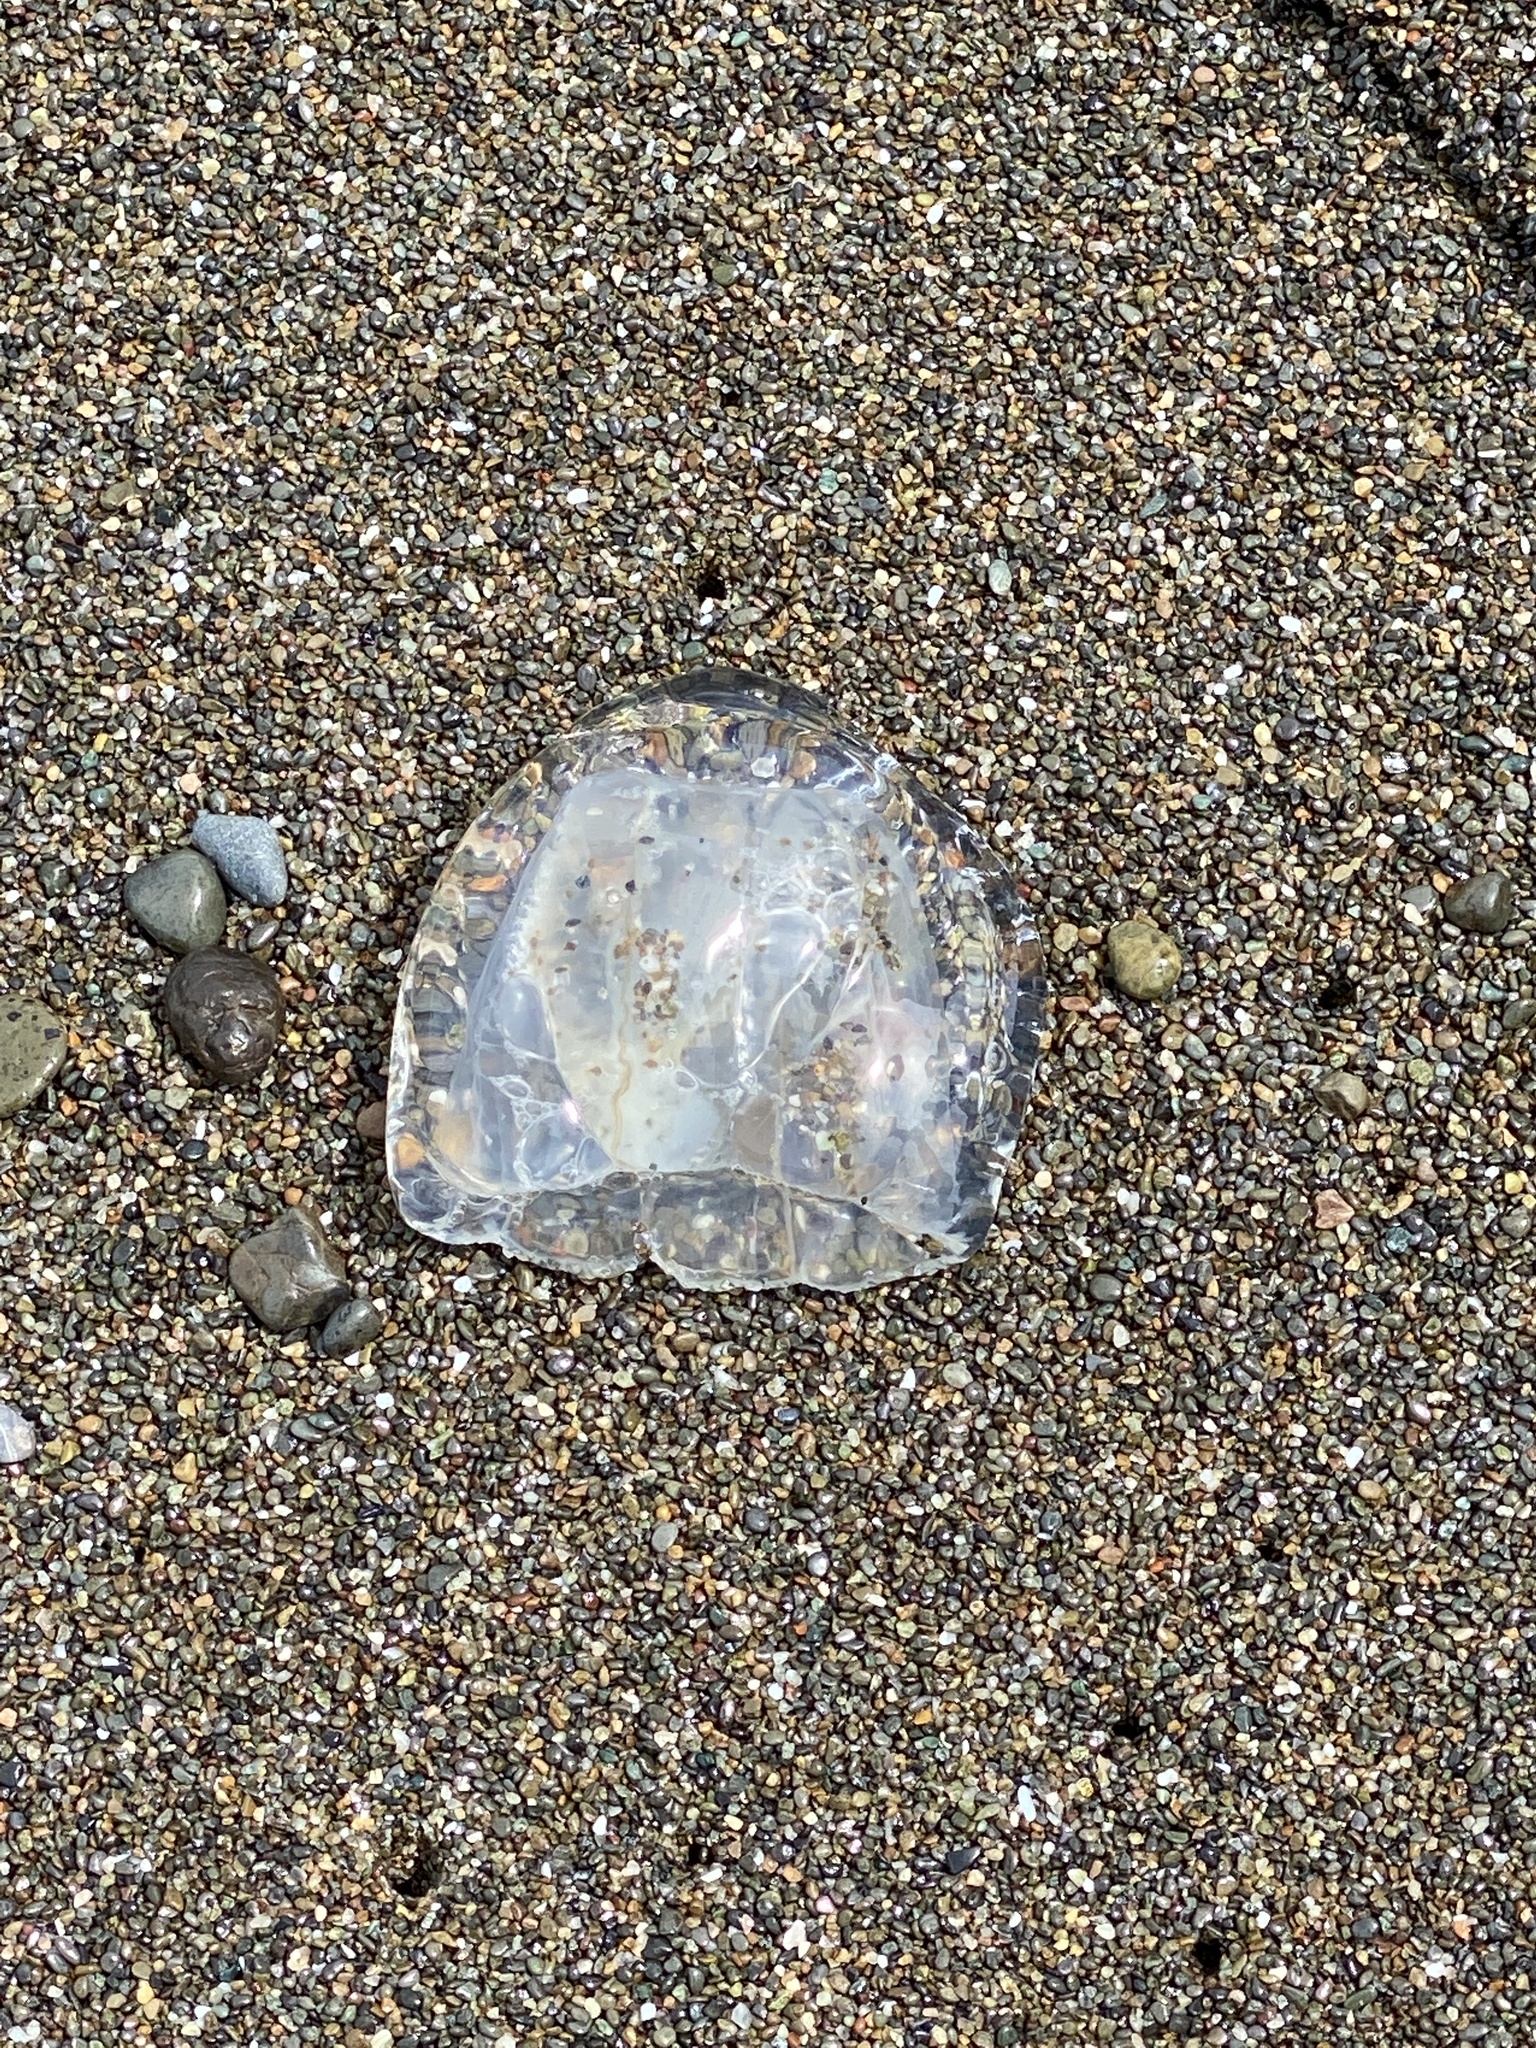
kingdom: Animalia
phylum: Cnidaria
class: Hydrozoa
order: Anthoathecata
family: Corynidae
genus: Scrippsia
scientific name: Scrippsia pacifica
